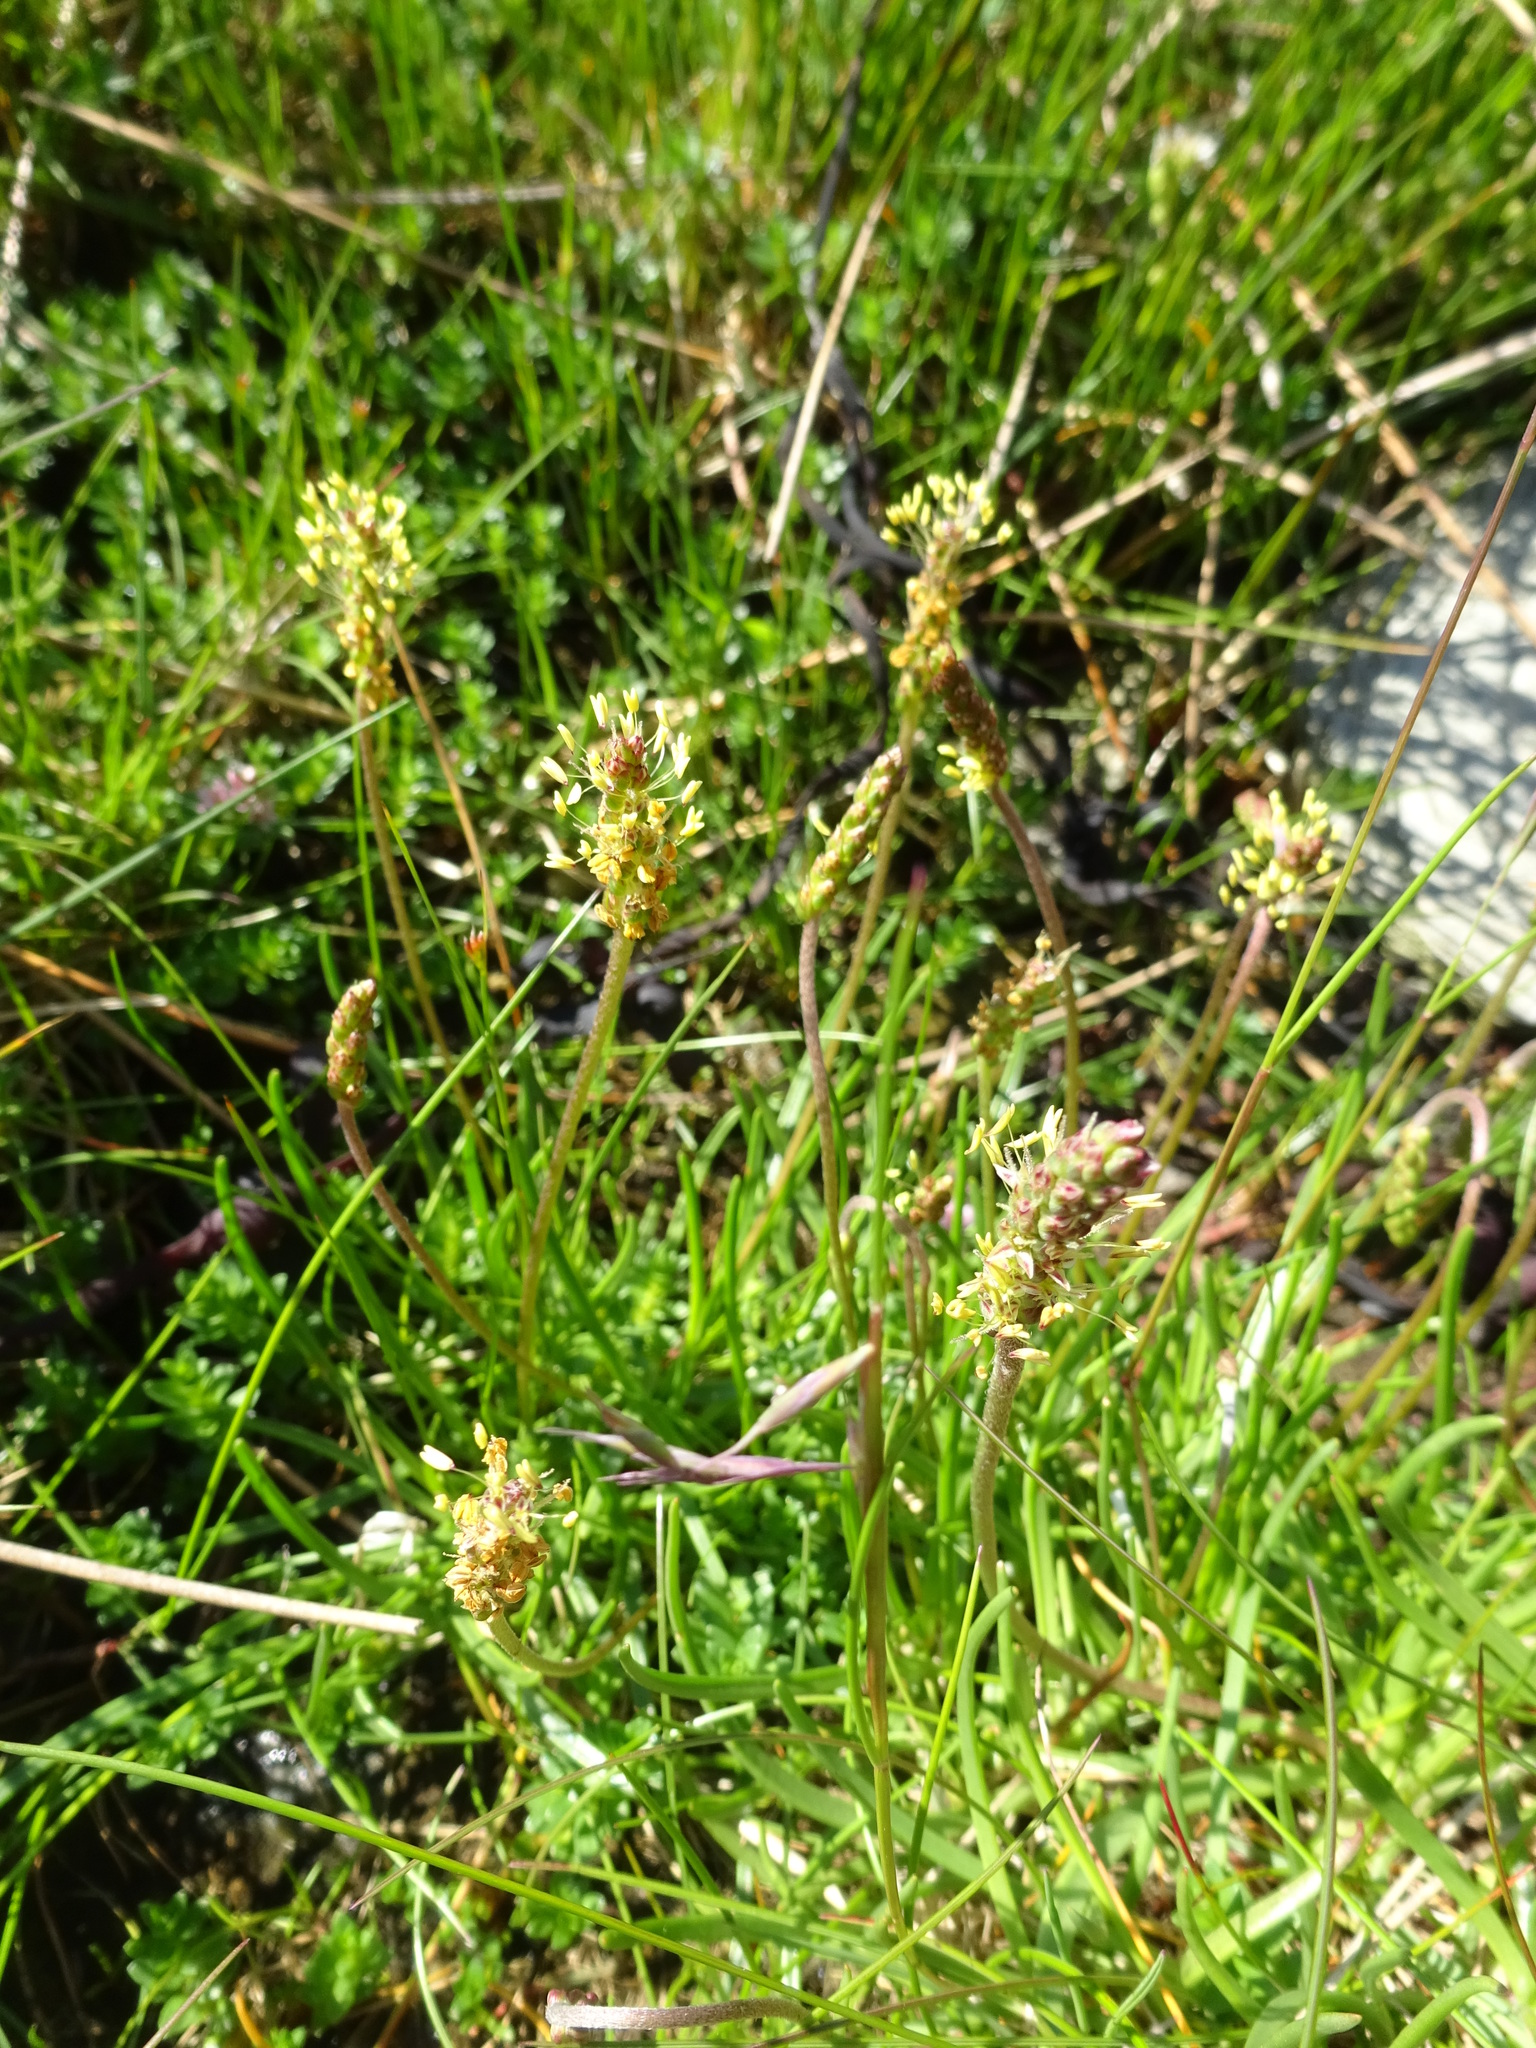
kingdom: Plantae
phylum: Tracheophyta
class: Magnoliopsida
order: Lamiales
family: Plantaginaceae
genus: Plantago
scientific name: Plantago maritima
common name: Sea plantain
